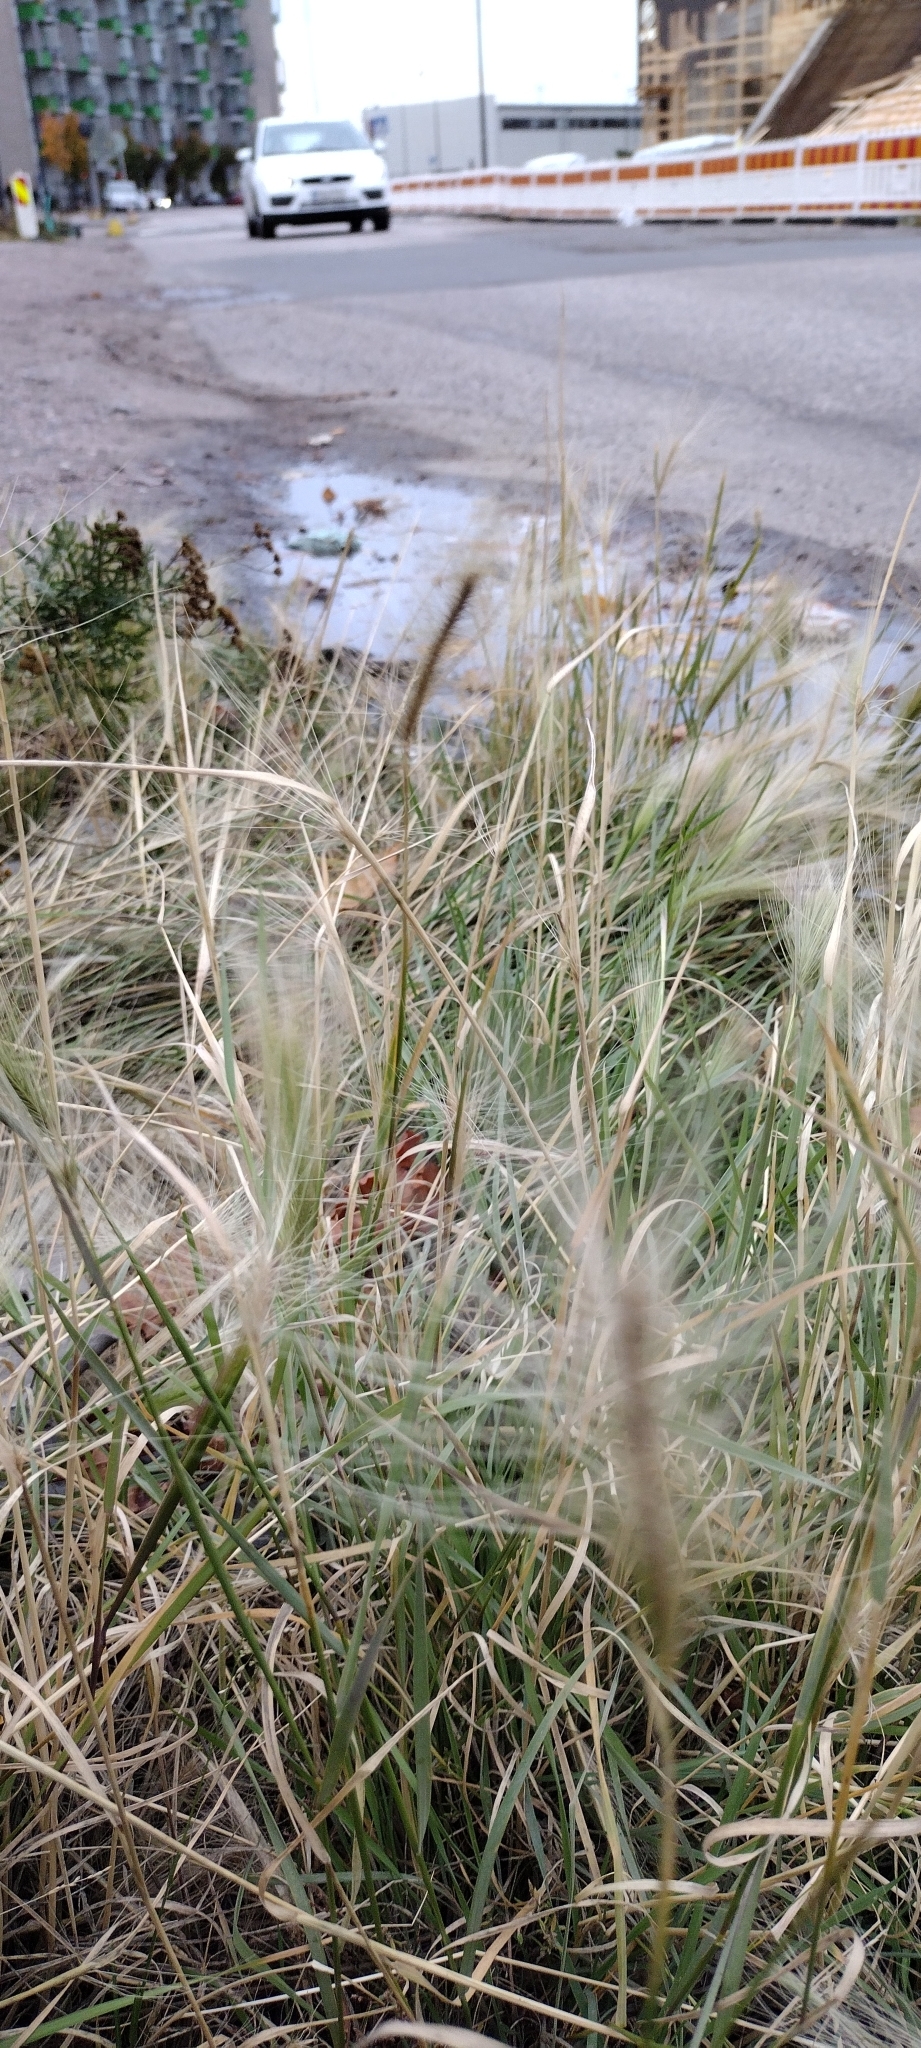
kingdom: Plantae
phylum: Tracheophyta
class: Liliopsida
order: Poales
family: Poaceae
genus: Hordeum
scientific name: Hordeum jubatum
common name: Foxtail barley
